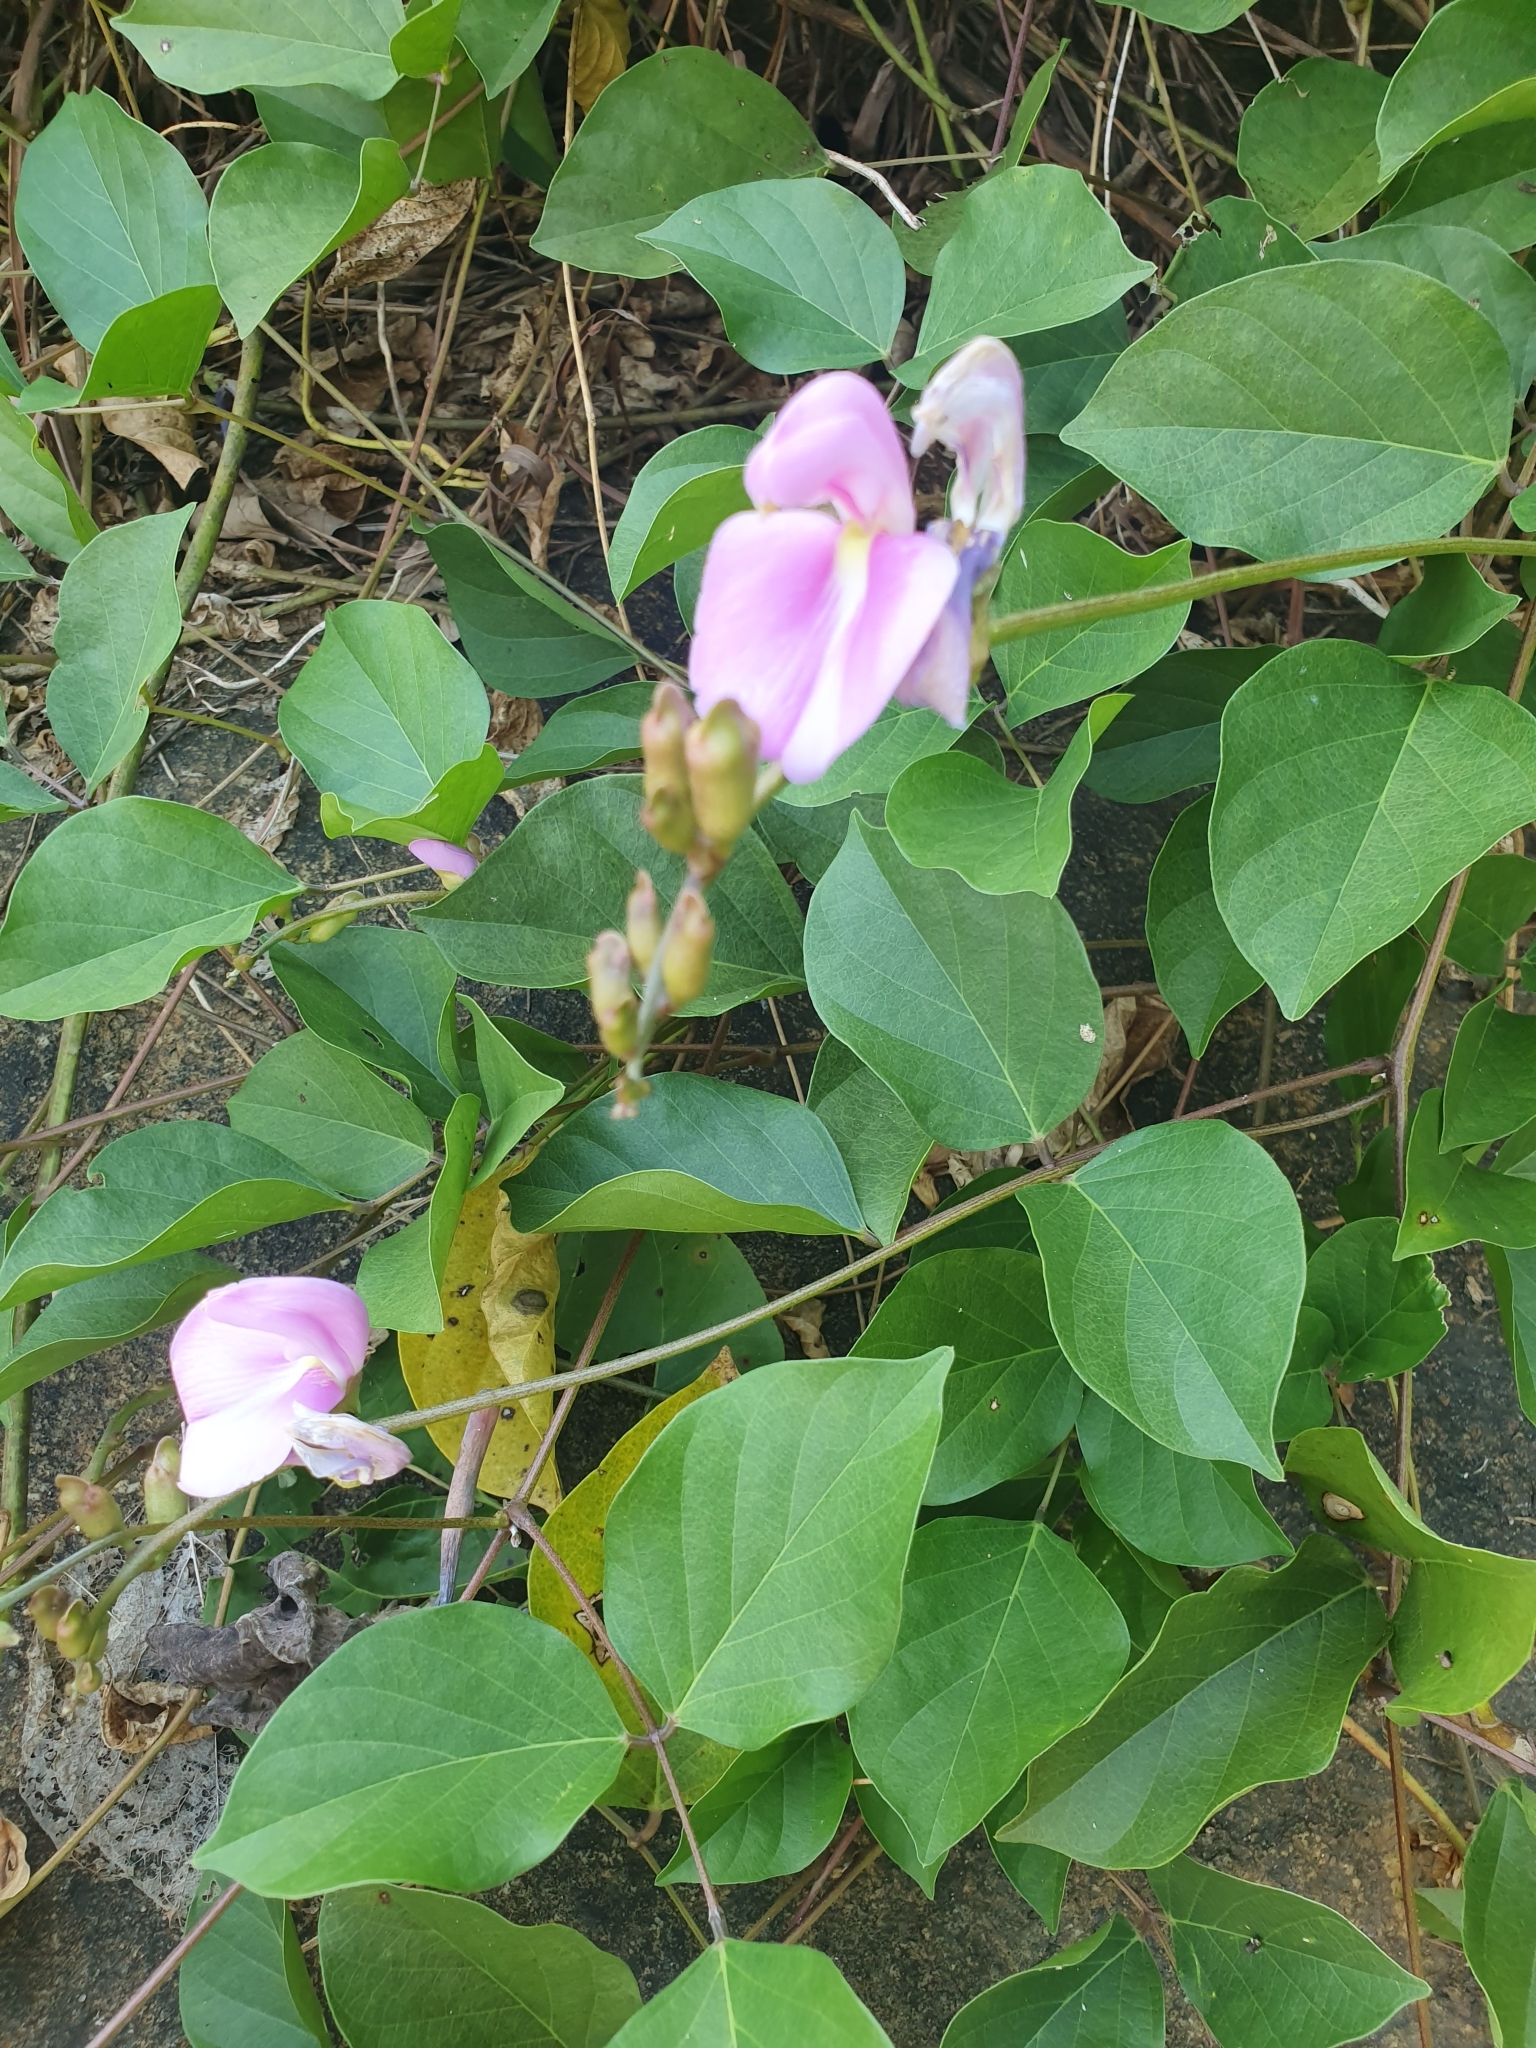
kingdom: Plantae
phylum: Tracheophyta
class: Magnoliopsida
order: Fabales
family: Fabaceae
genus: Canavalia
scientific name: Canavalia rosea
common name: Beach-bean
